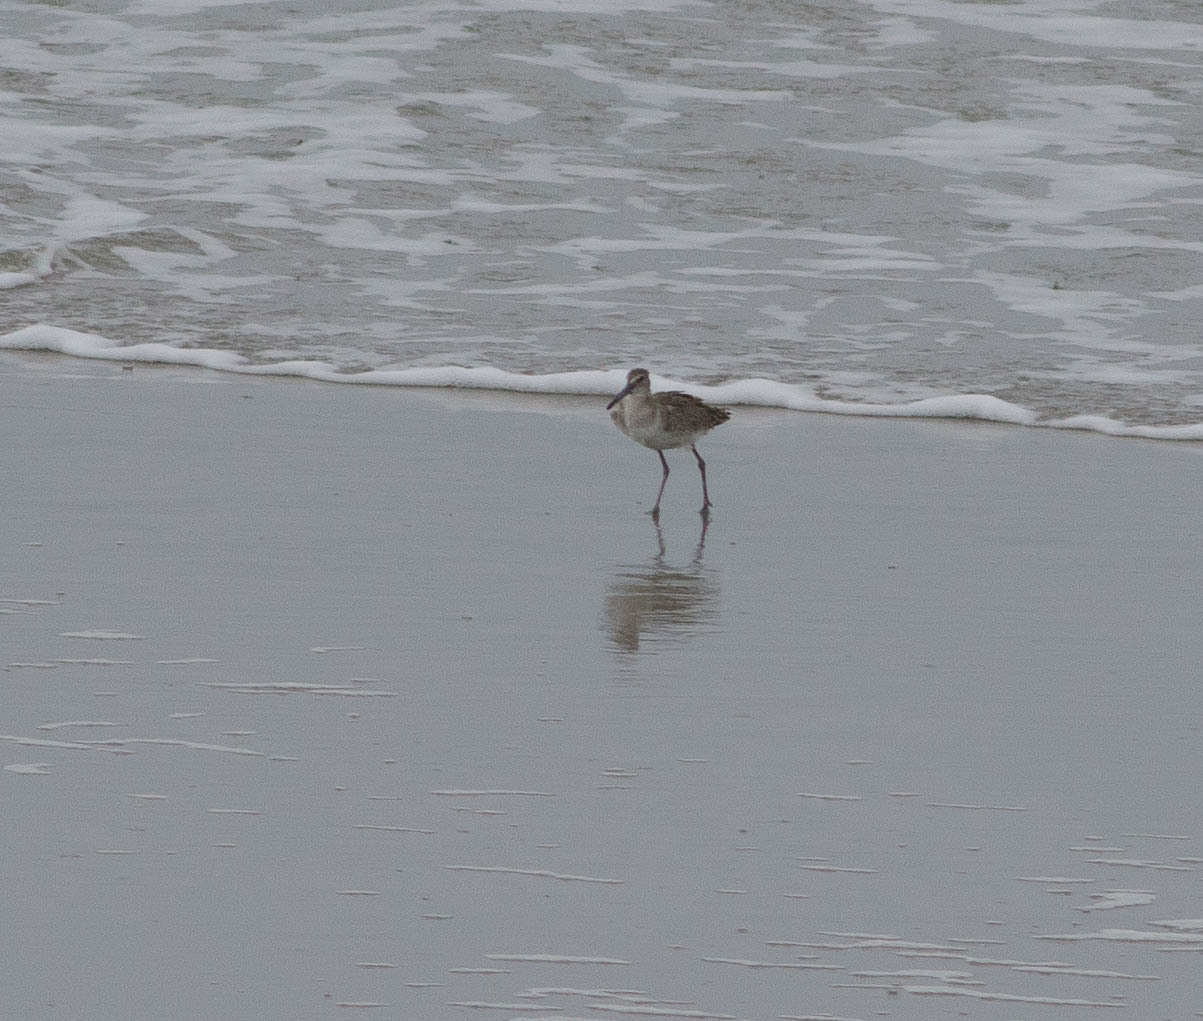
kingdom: Animalia
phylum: Chordata
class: Aves
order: Charadriiformes
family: Scolopacidae
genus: Tringa
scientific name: Tringa semipalmata
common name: Willet
